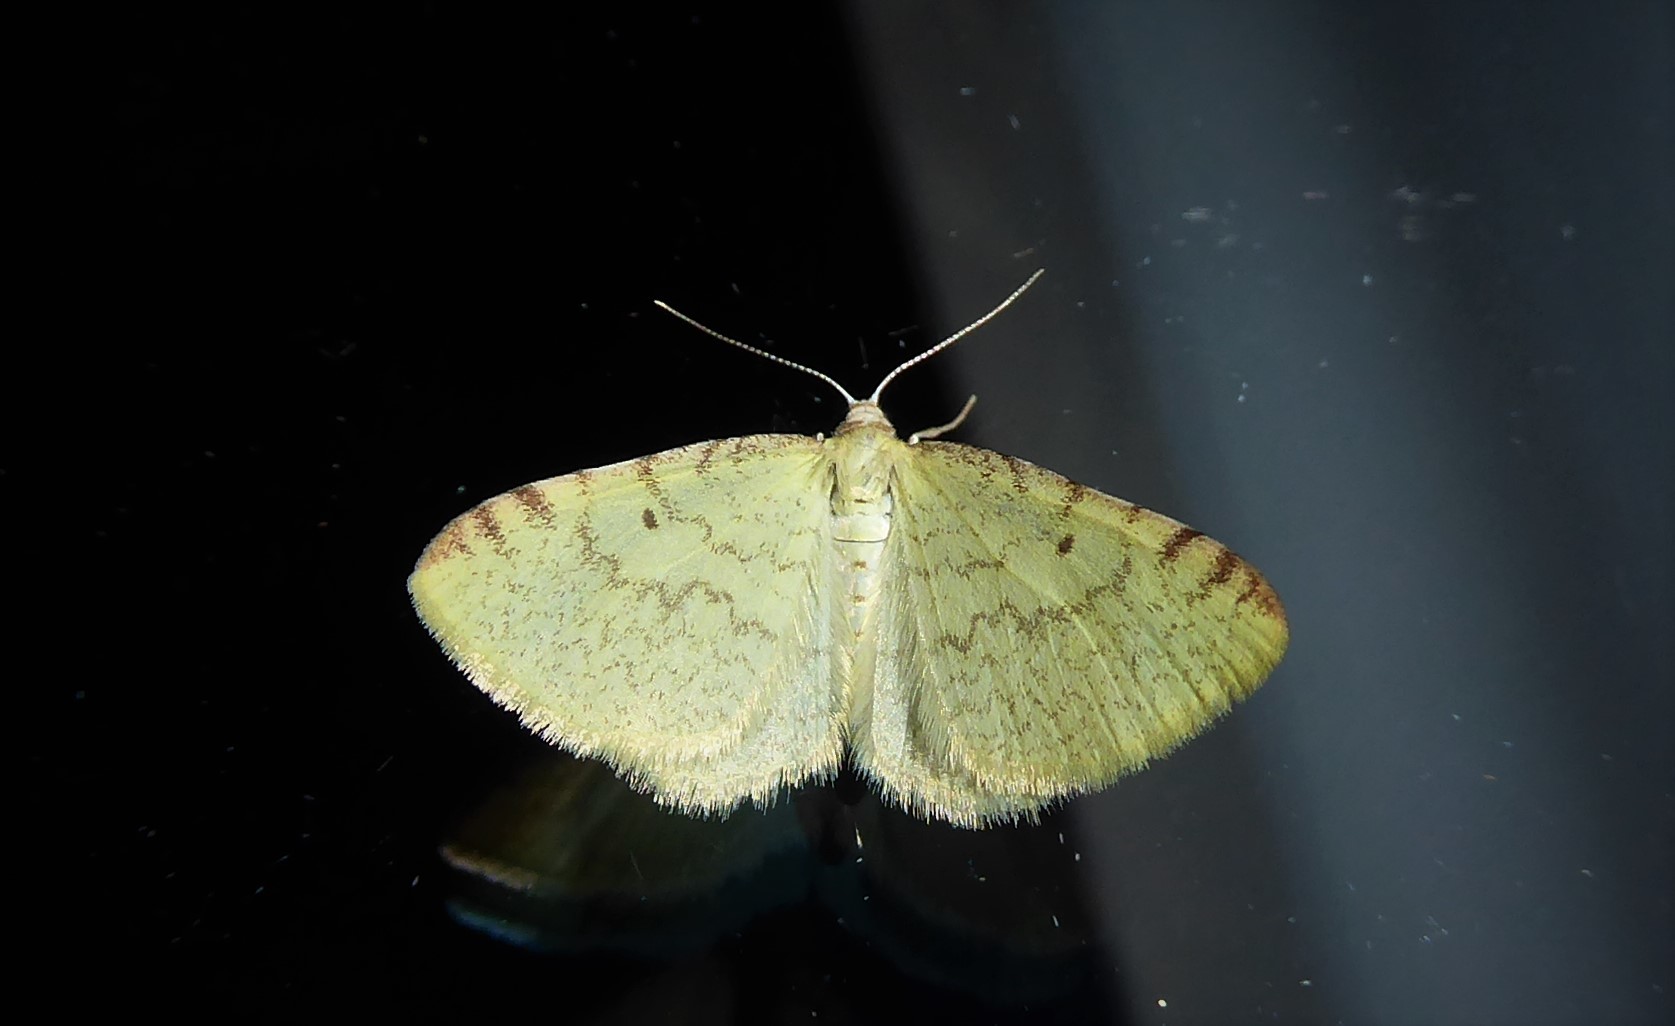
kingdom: Animalia
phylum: Arthropoda
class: Insecta
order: Lepidoptera
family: Geometridae
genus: Epiphryne
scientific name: Epiphryne undosata
